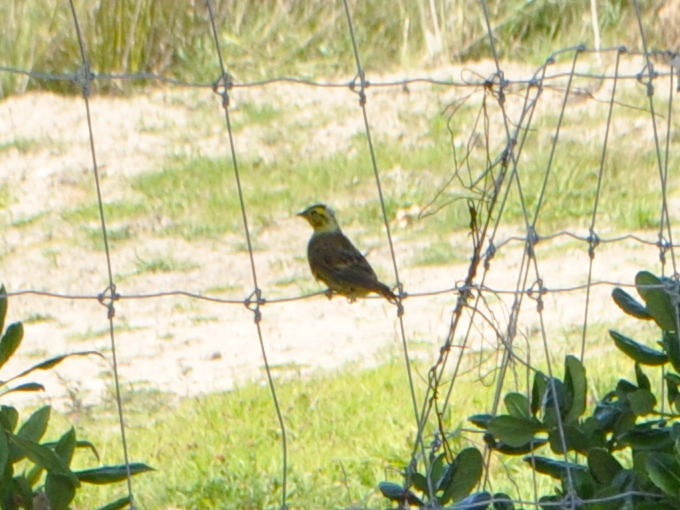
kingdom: Animalia
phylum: Chordata
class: Aves
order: Passeriformes
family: Emberizidae
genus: Emberiza
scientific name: Emberiza citrinella
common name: Yellowhammer
